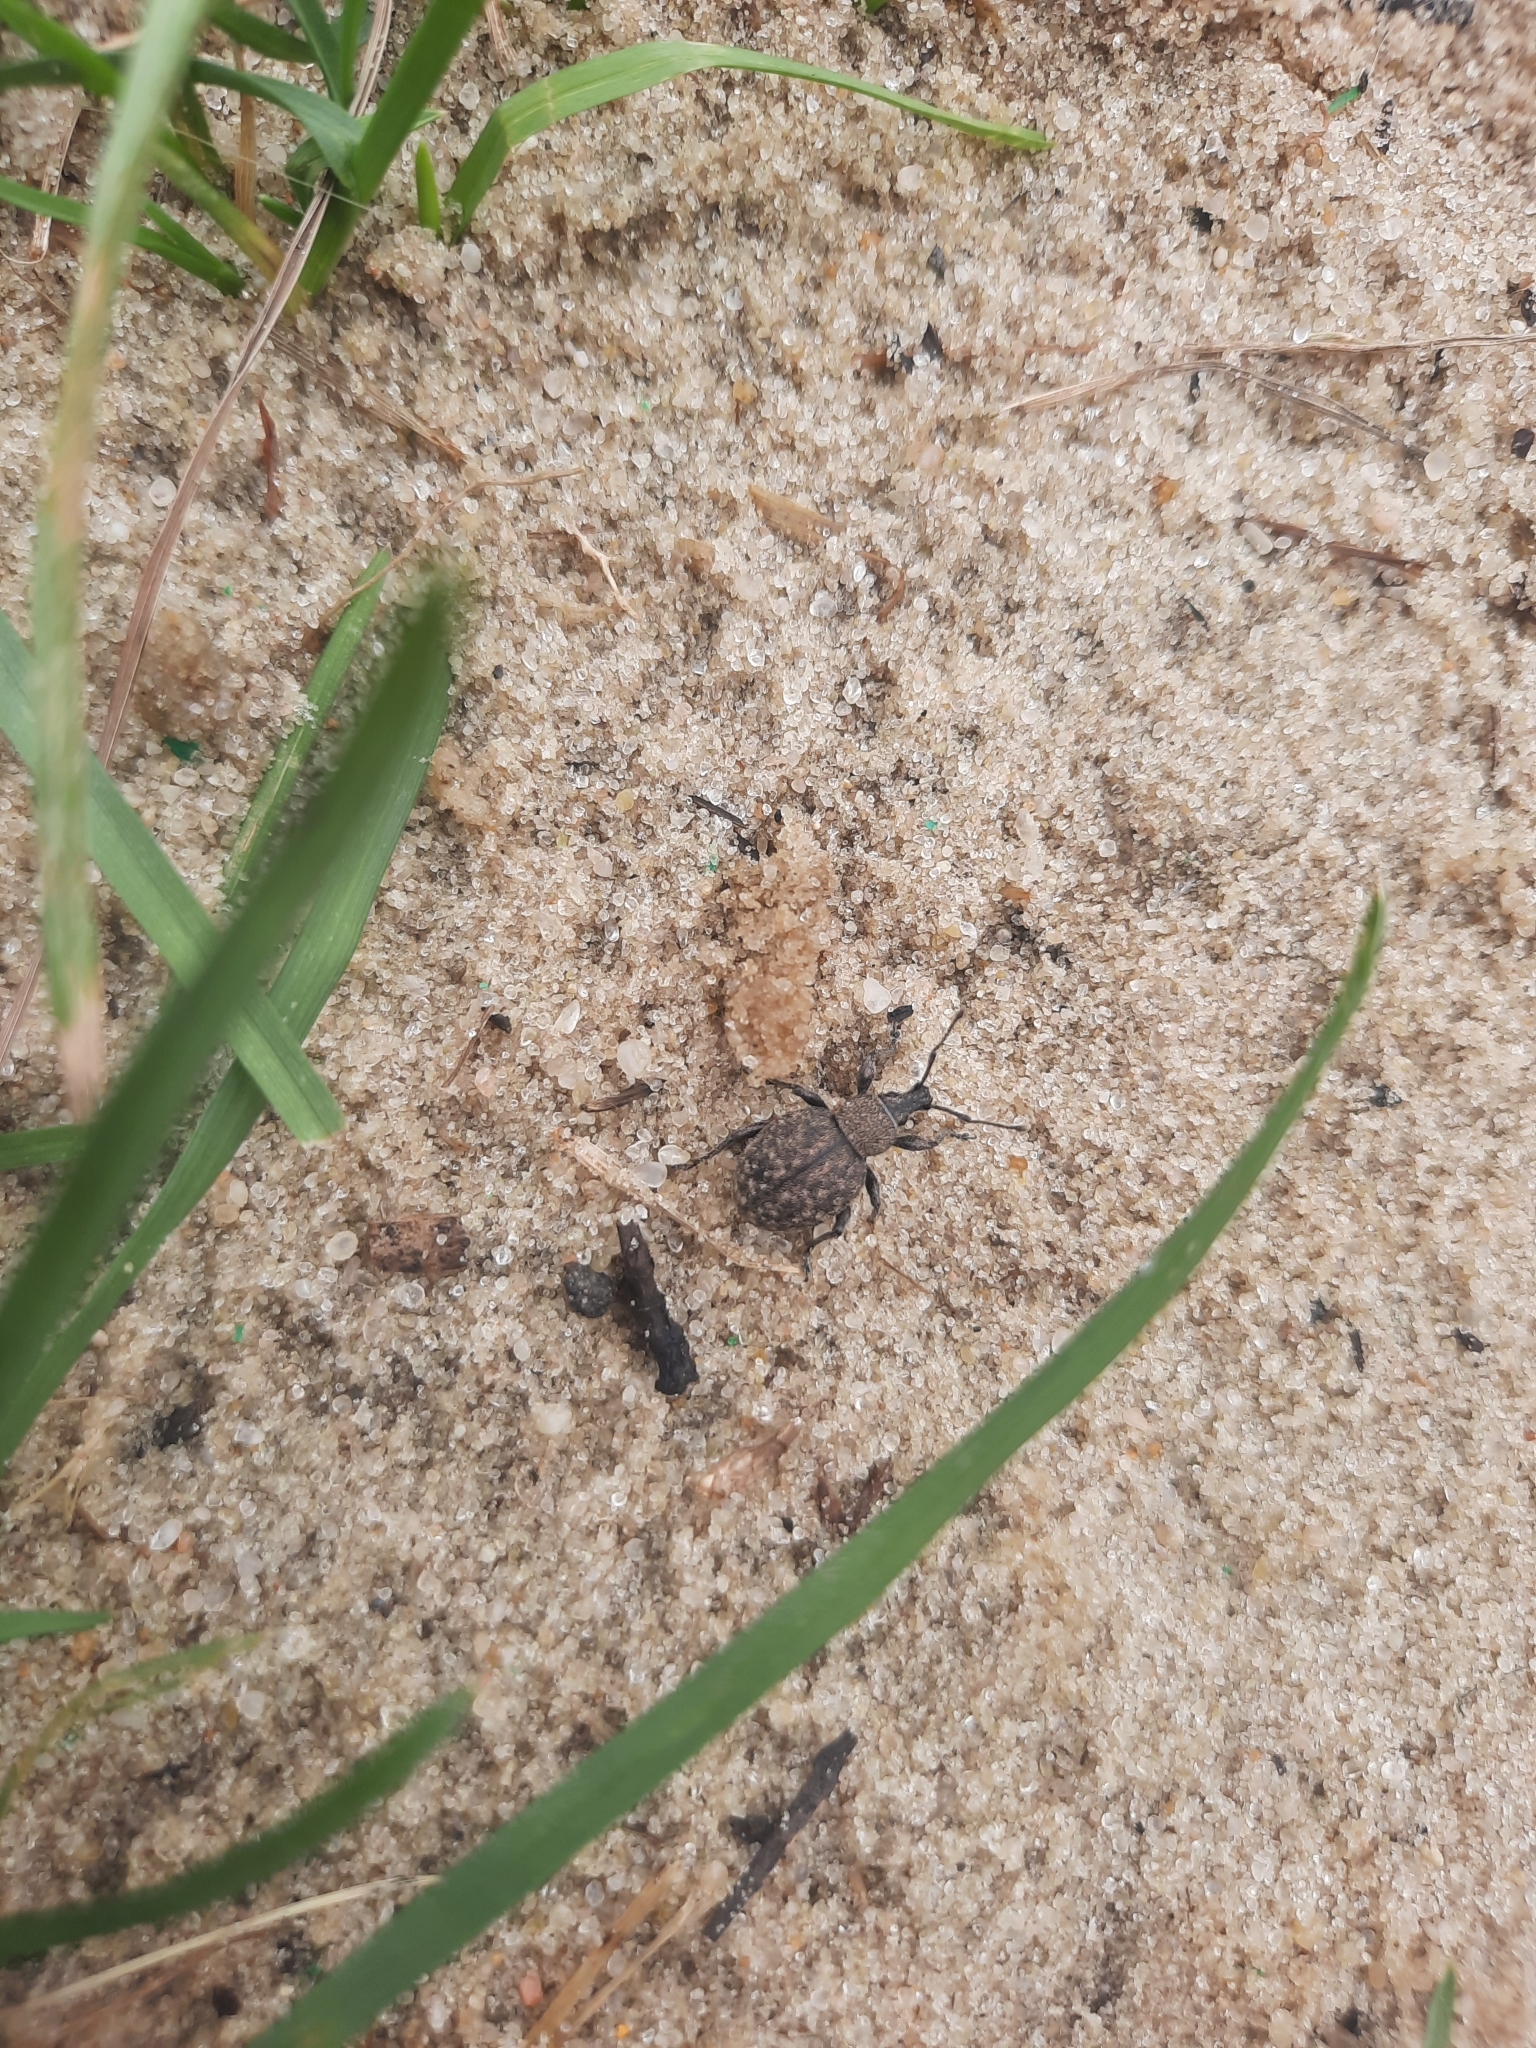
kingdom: Animalia
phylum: Arthropoda
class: Insecta
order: Coleoptera
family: Curculionidae
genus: Otiorhynchus
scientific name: Otiorhynchus ligustici
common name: Weevil
